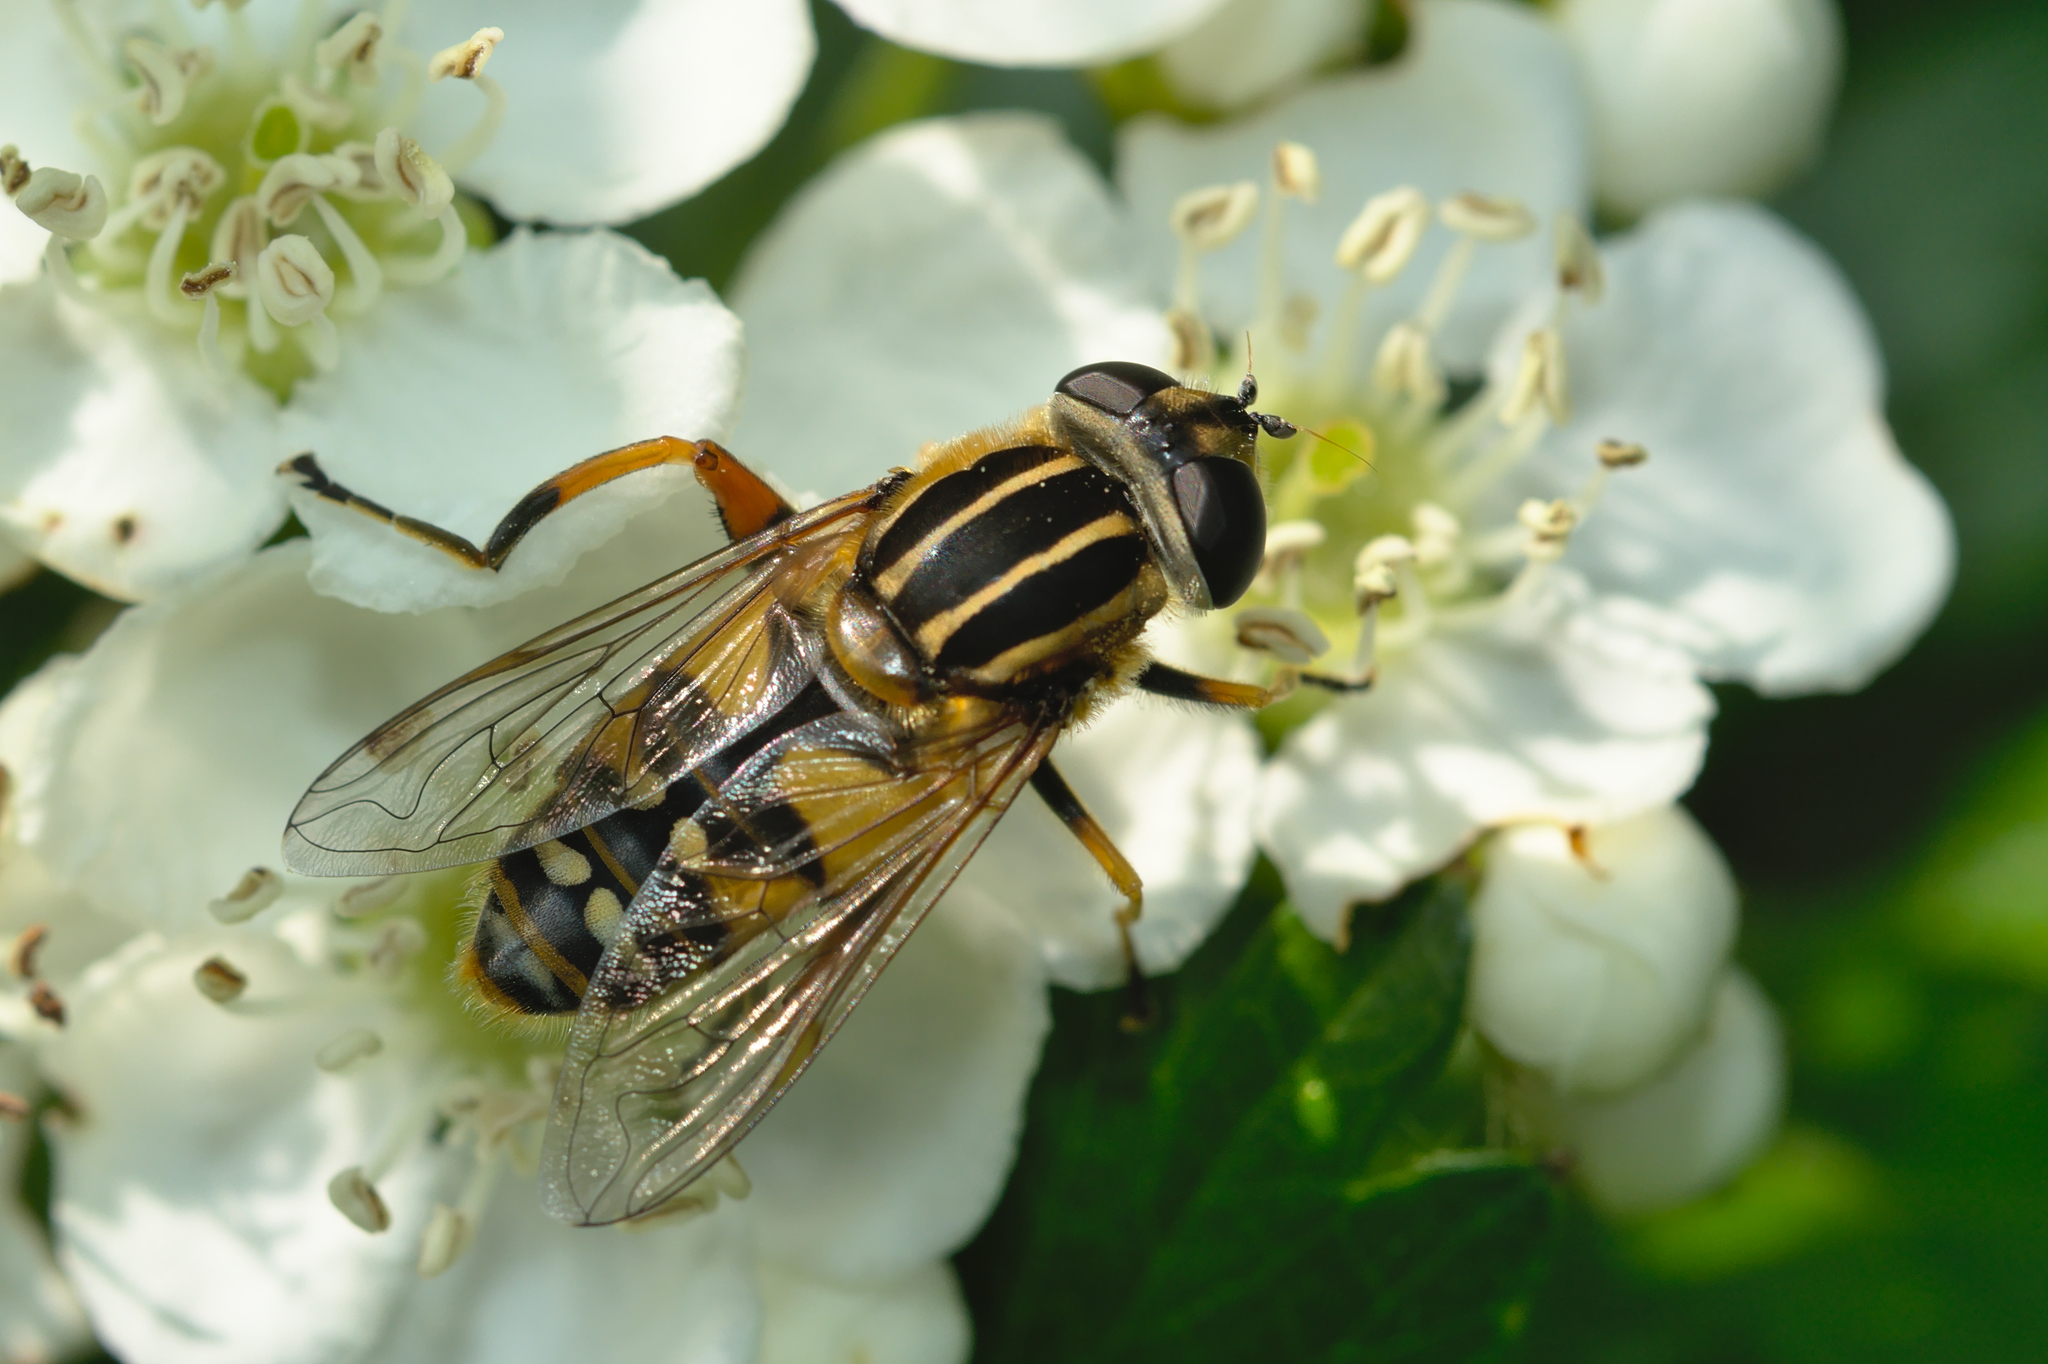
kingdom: Animalia
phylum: Arthropoda
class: Insecta
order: Diptera
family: Syrphidae
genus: Helophilus
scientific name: Helophilus pendulus
